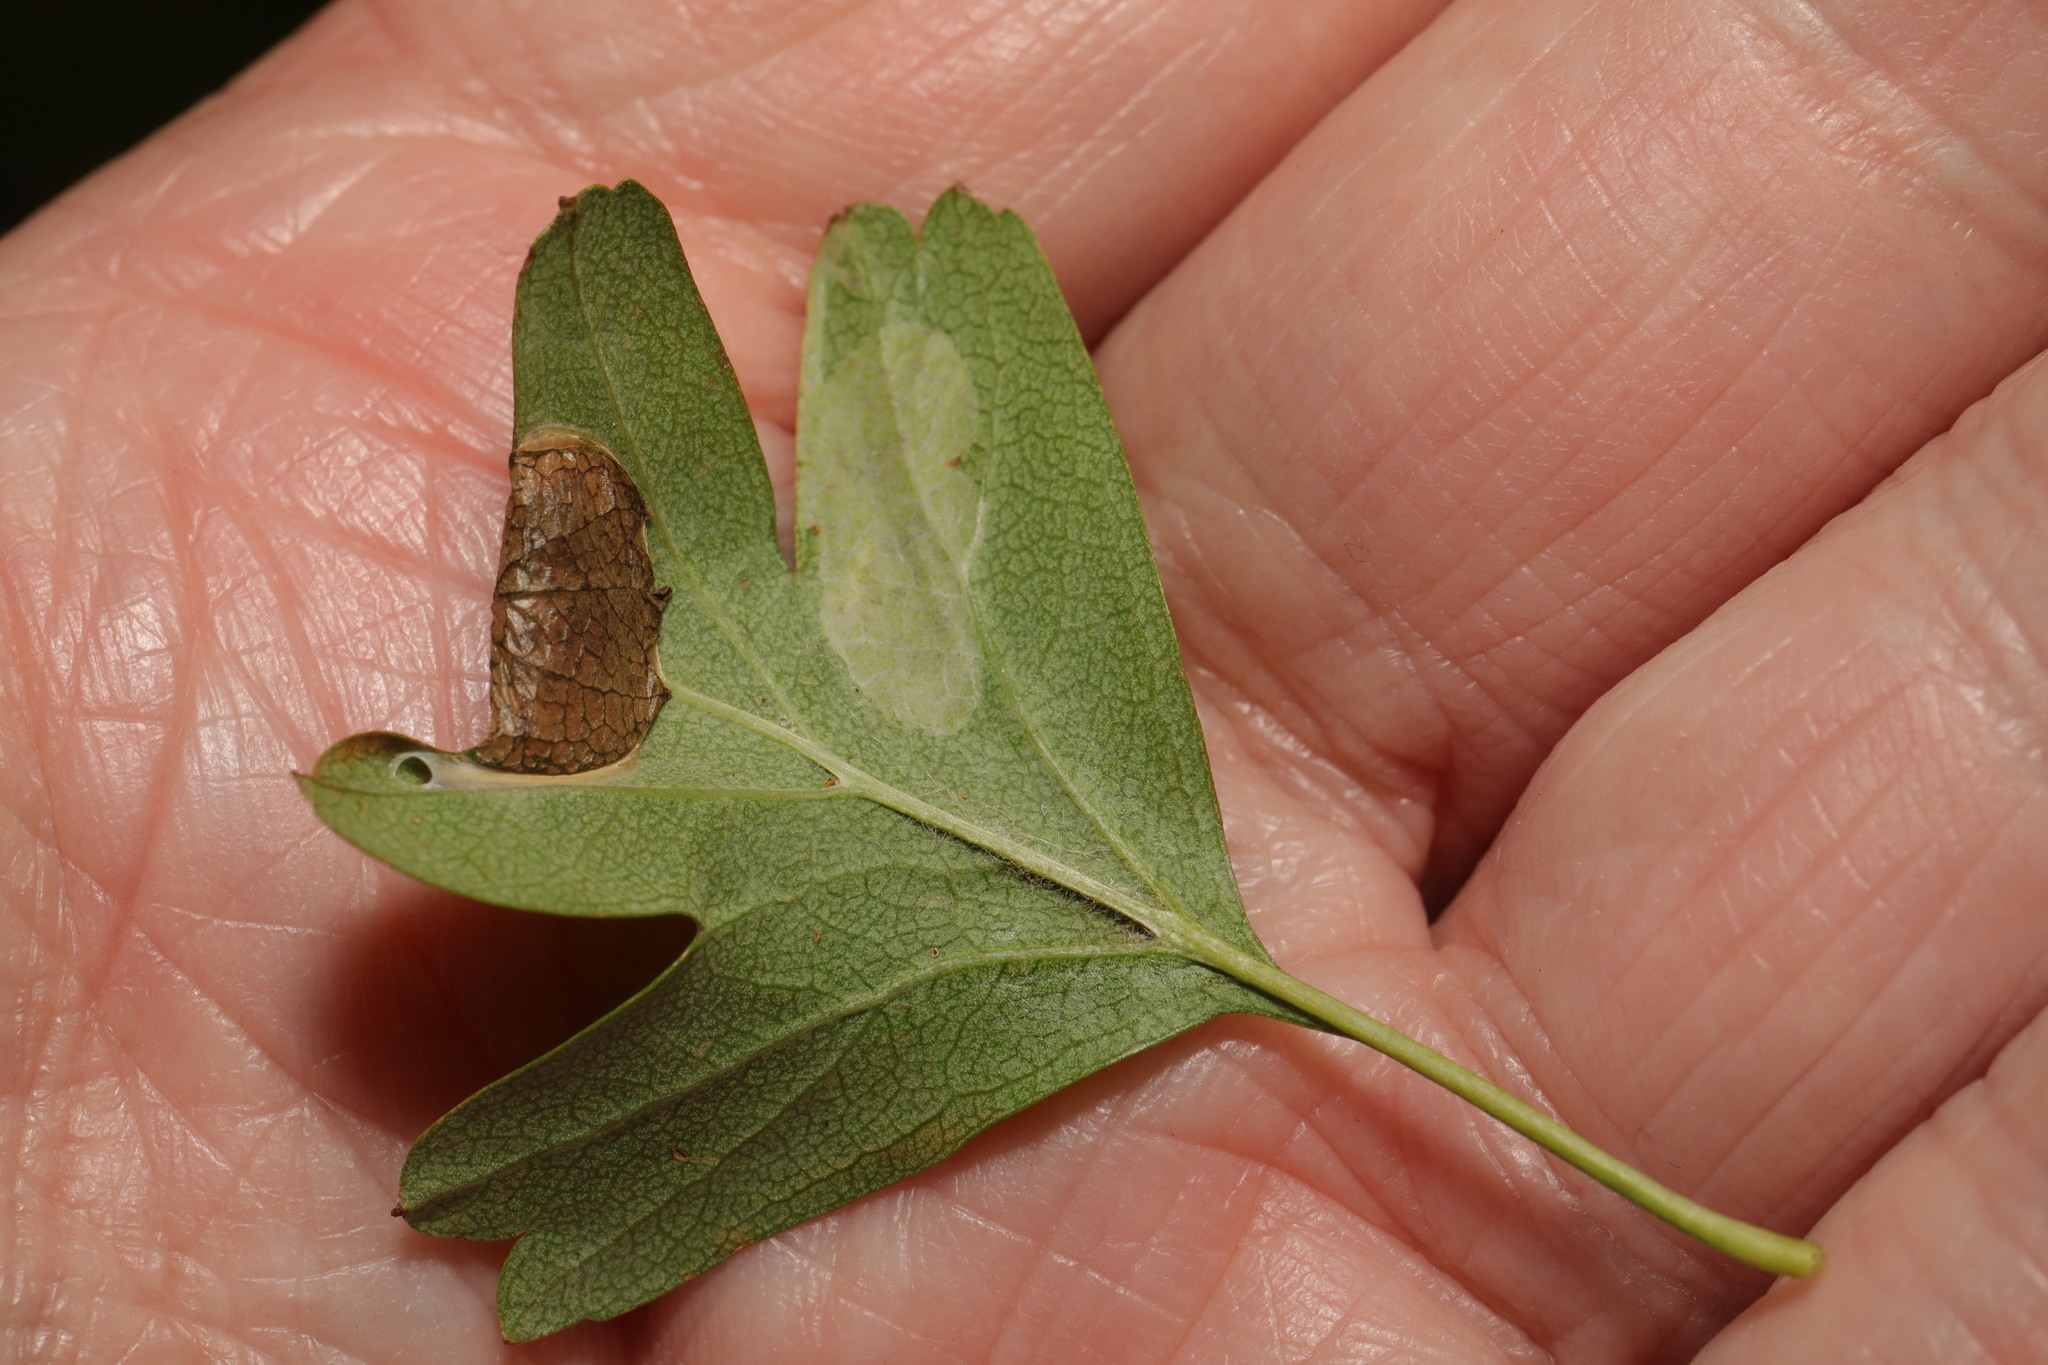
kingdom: Animalia
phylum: Arthropoda
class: Insecta
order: Lepidoptera
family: Gracillariidae
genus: Parornix
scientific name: Parornix anglicella
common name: Hawthorn slender
